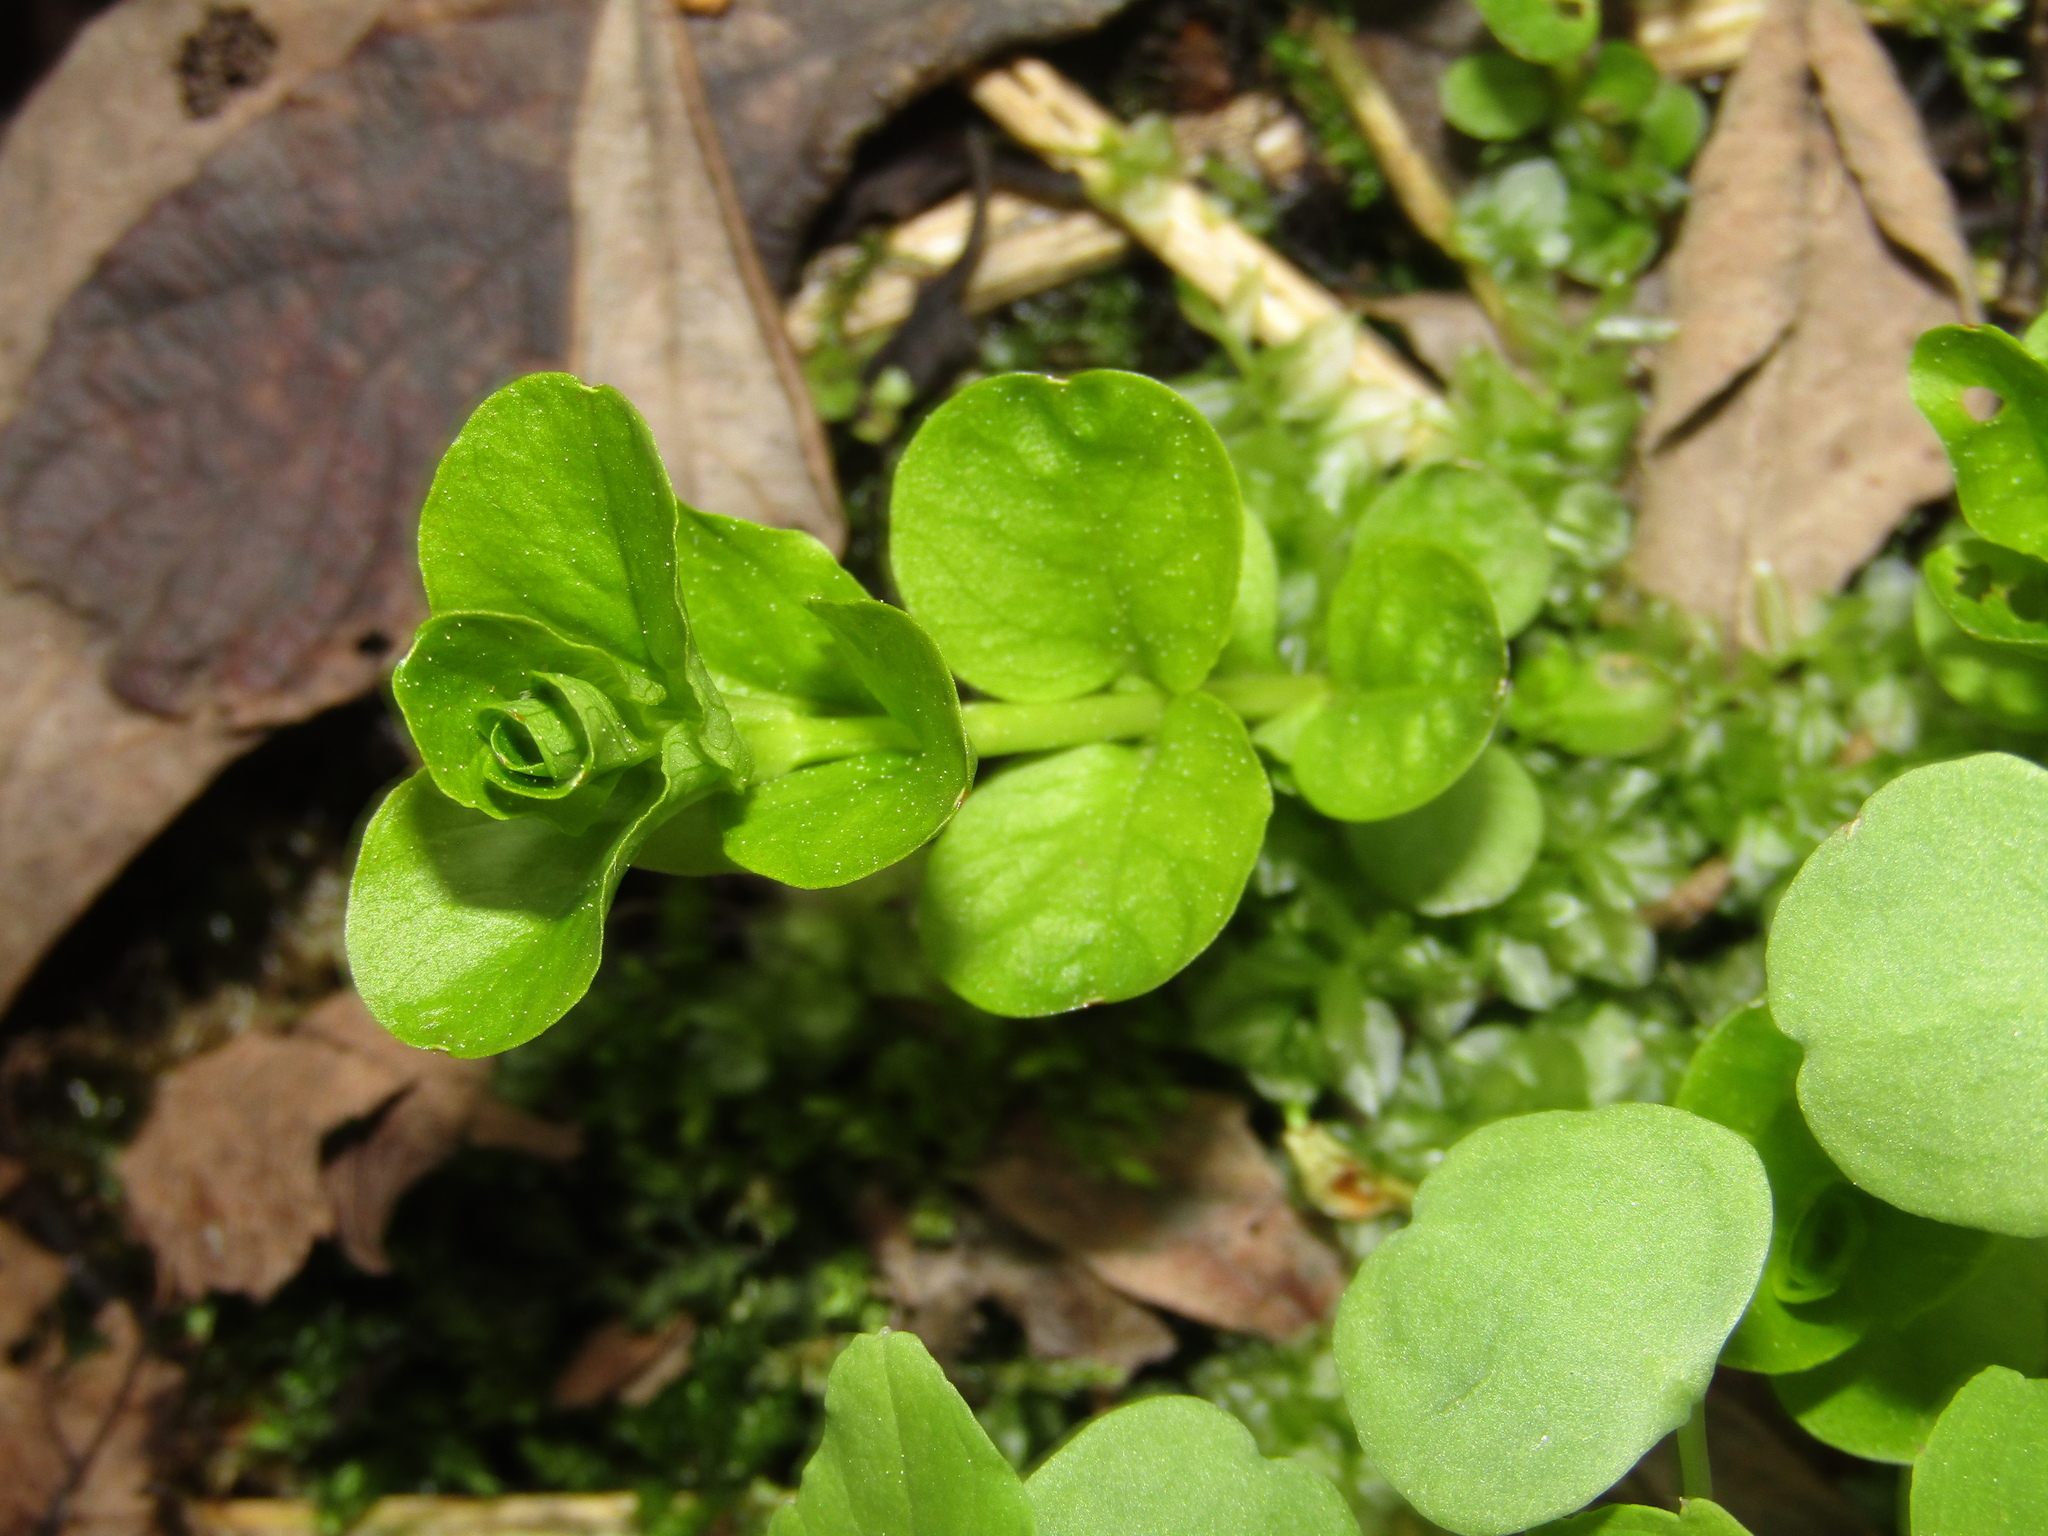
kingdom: Plantae
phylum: Tracheophyta
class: Magnoliopsida
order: Ericales
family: Primulaceae
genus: Lysimachia
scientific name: Lysimachia nummularia
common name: Moneywort
